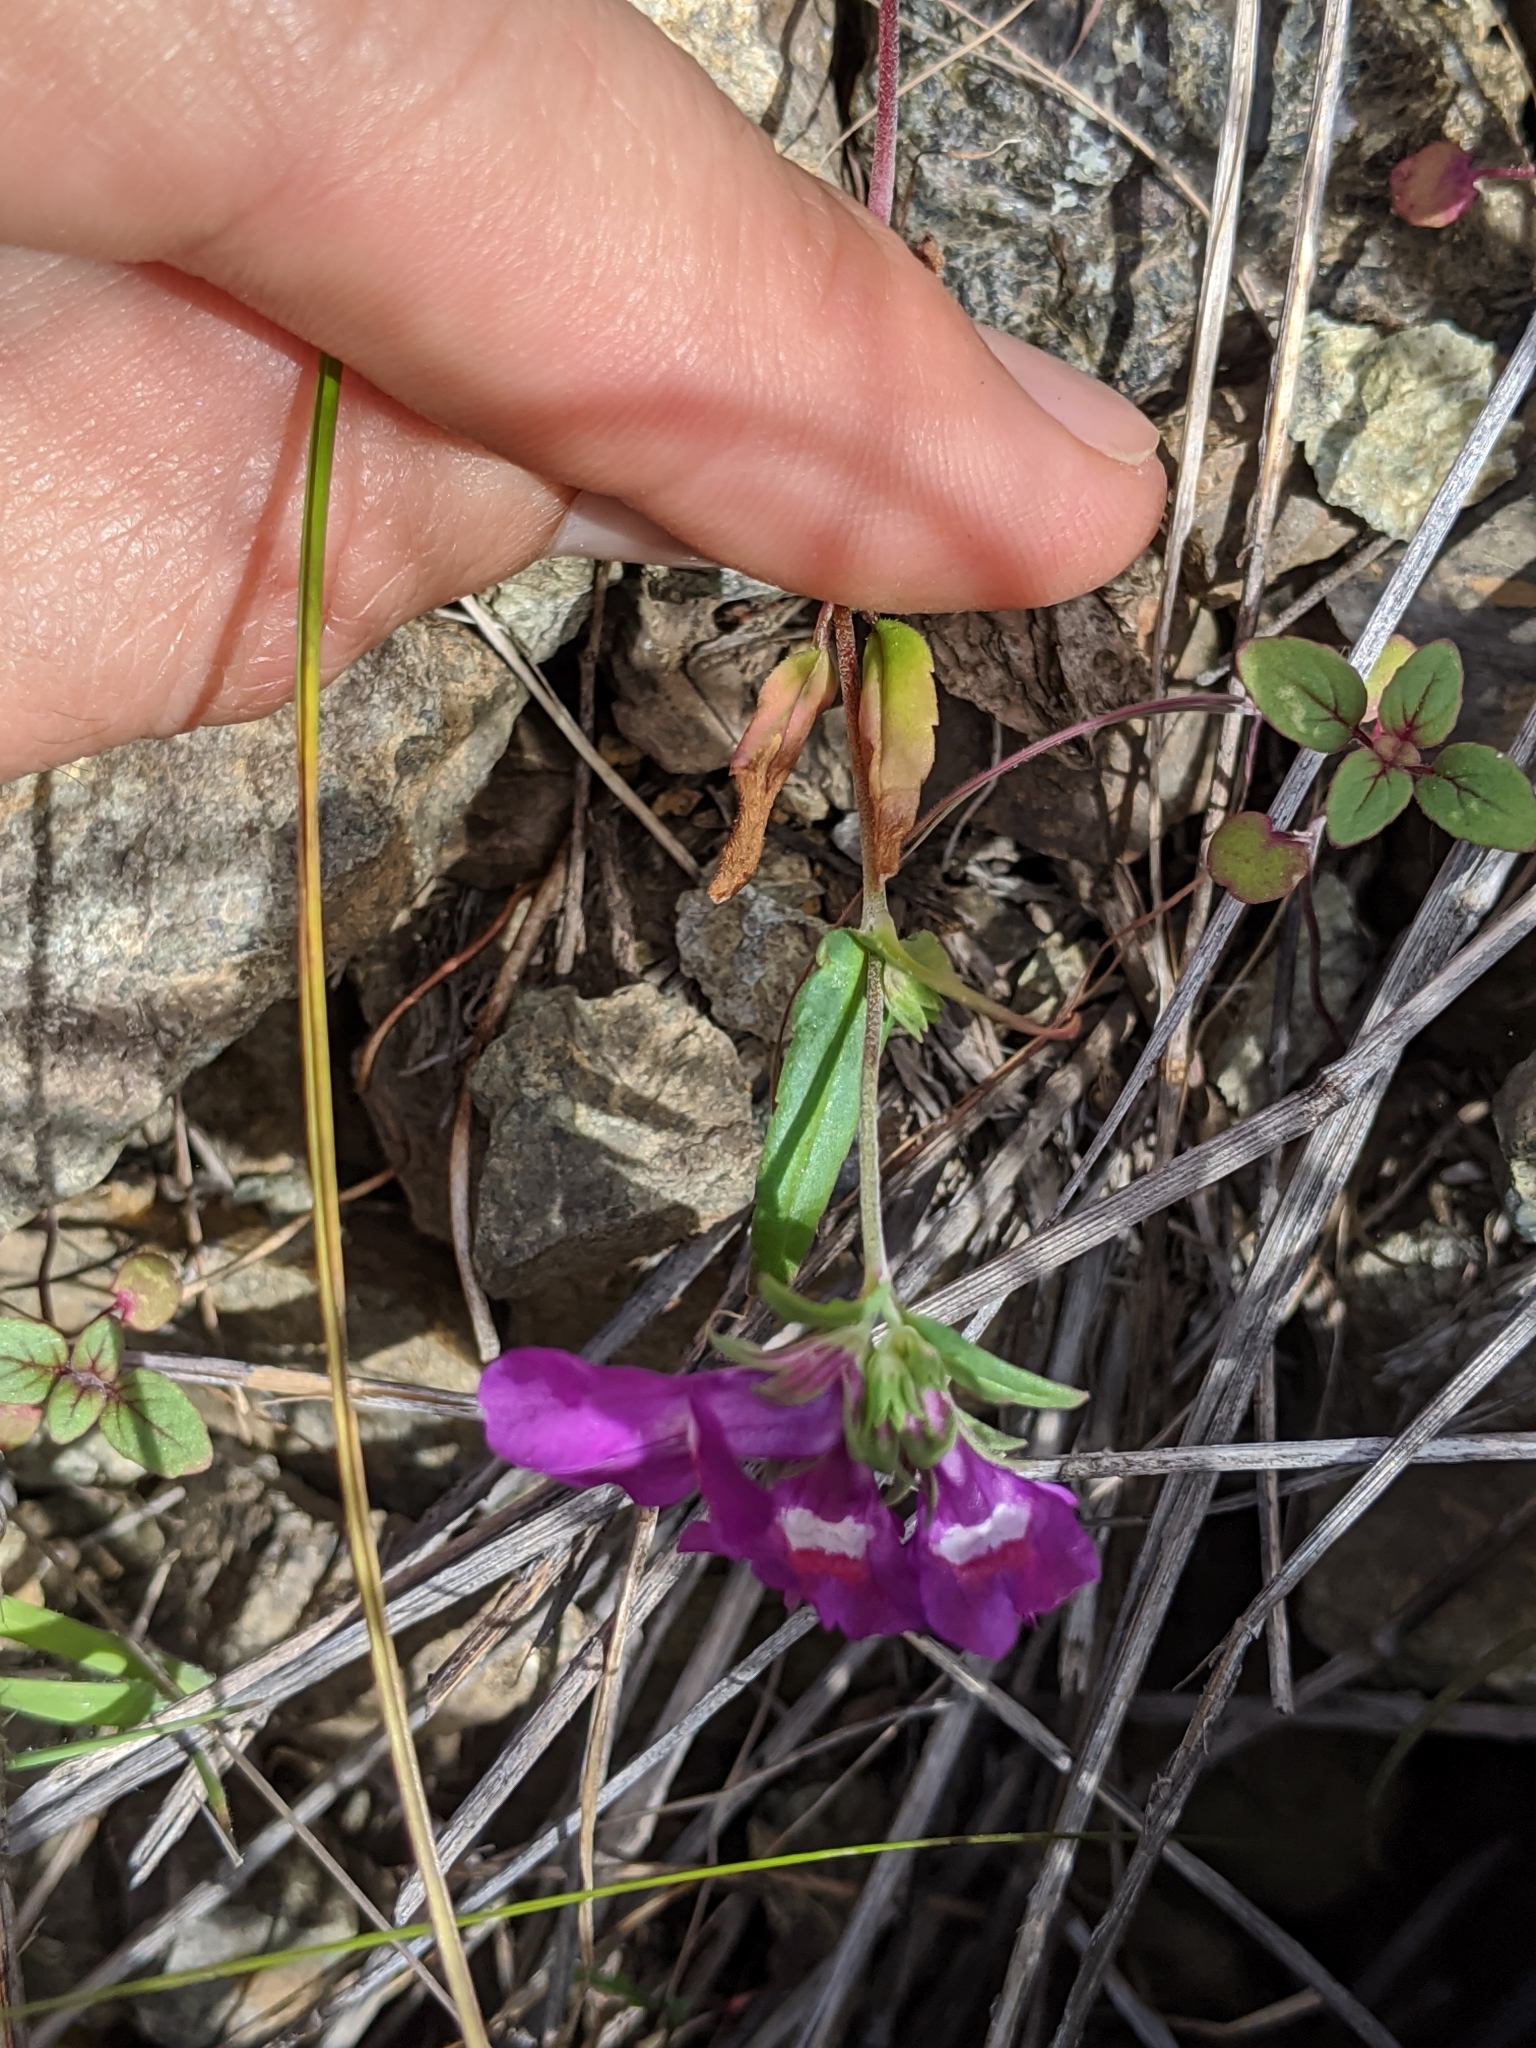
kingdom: Plantae
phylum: Tracheophyta
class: Magnoliopsida
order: Lamiales
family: Plantaginaceae
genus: Collinsia
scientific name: Collinsia heterophylla
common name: Chinese-houses
